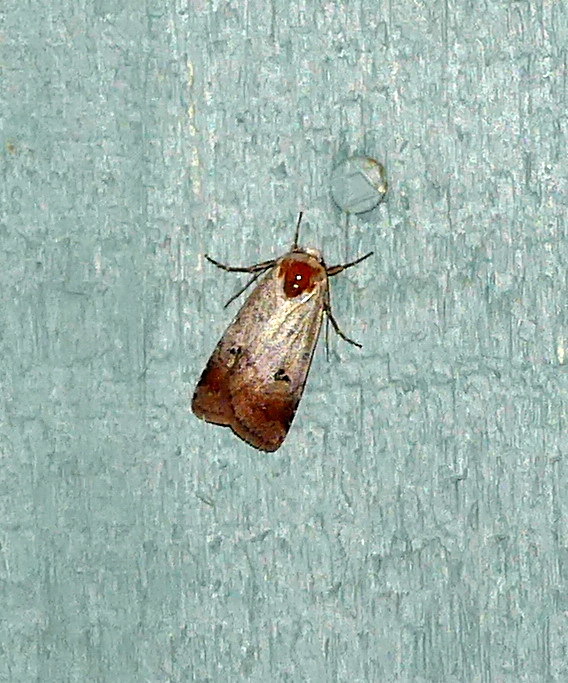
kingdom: Animalia
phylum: Arthropoda
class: Insecta
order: Lepidoptera
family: Noctuidae
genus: Anicla
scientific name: Anicla illapsa
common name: Snowy dart
